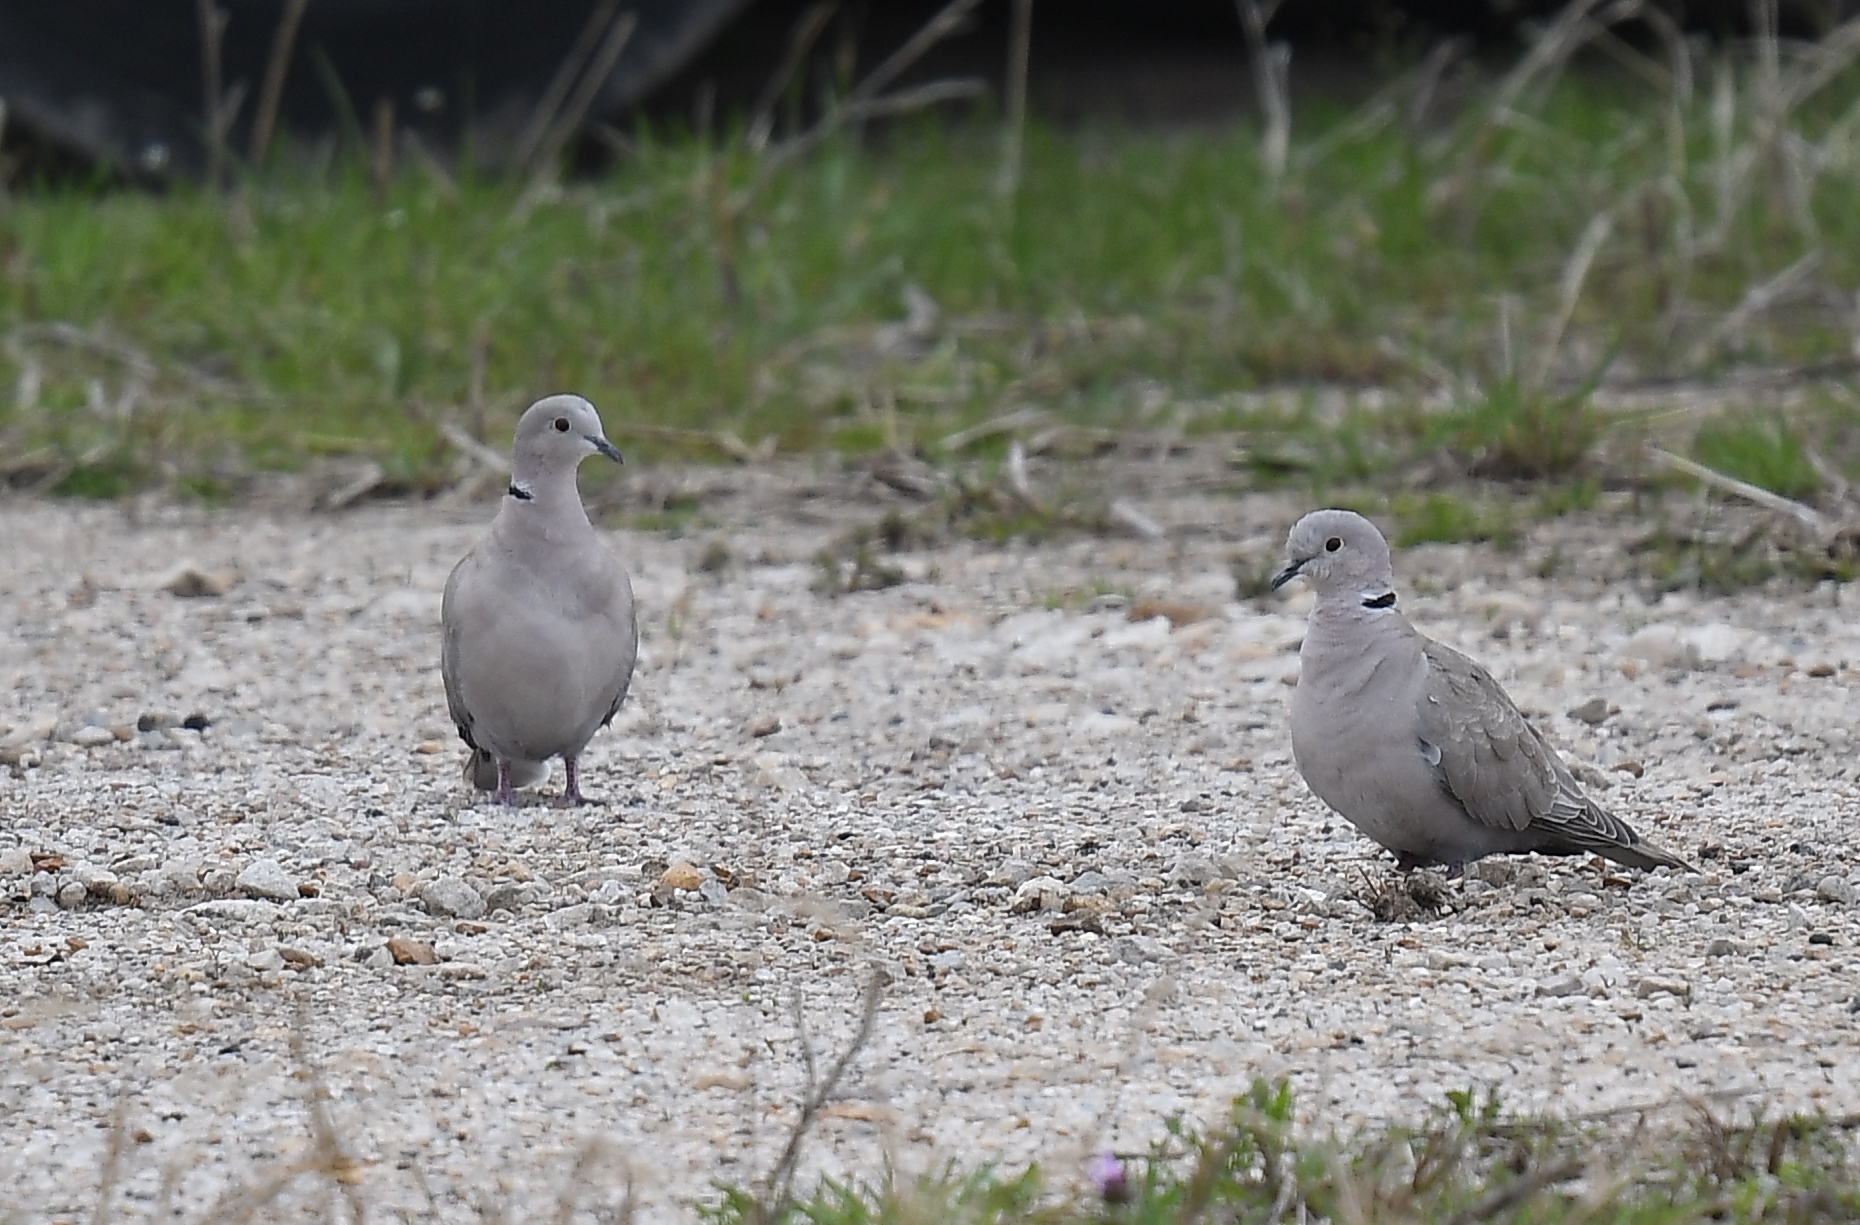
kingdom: Animalia
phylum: Chordata
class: Aves
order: Columbiformes
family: Columbidae
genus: Streptopelia
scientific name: Streptopelia decaocto
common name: Eurasian collared dove
